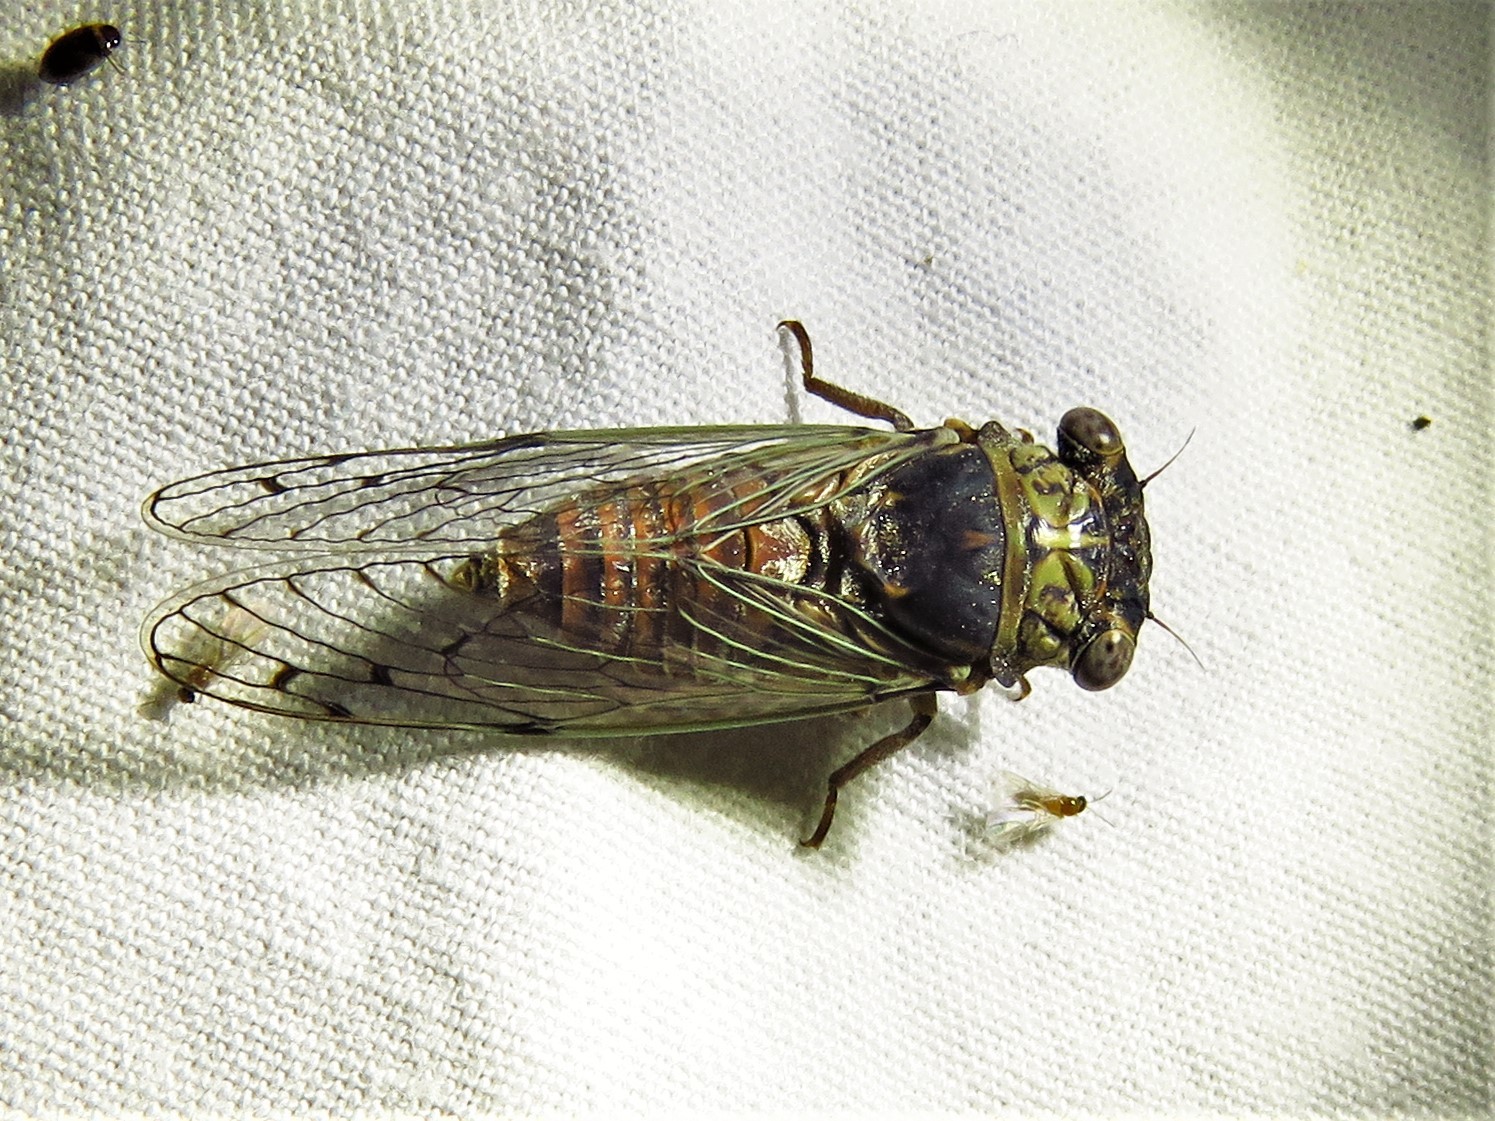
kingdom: Animalia
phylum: Arthropoda
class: Insecta
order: Hemiptera
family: Cicadidae
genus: Pacarina
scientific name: Pacarina puella
